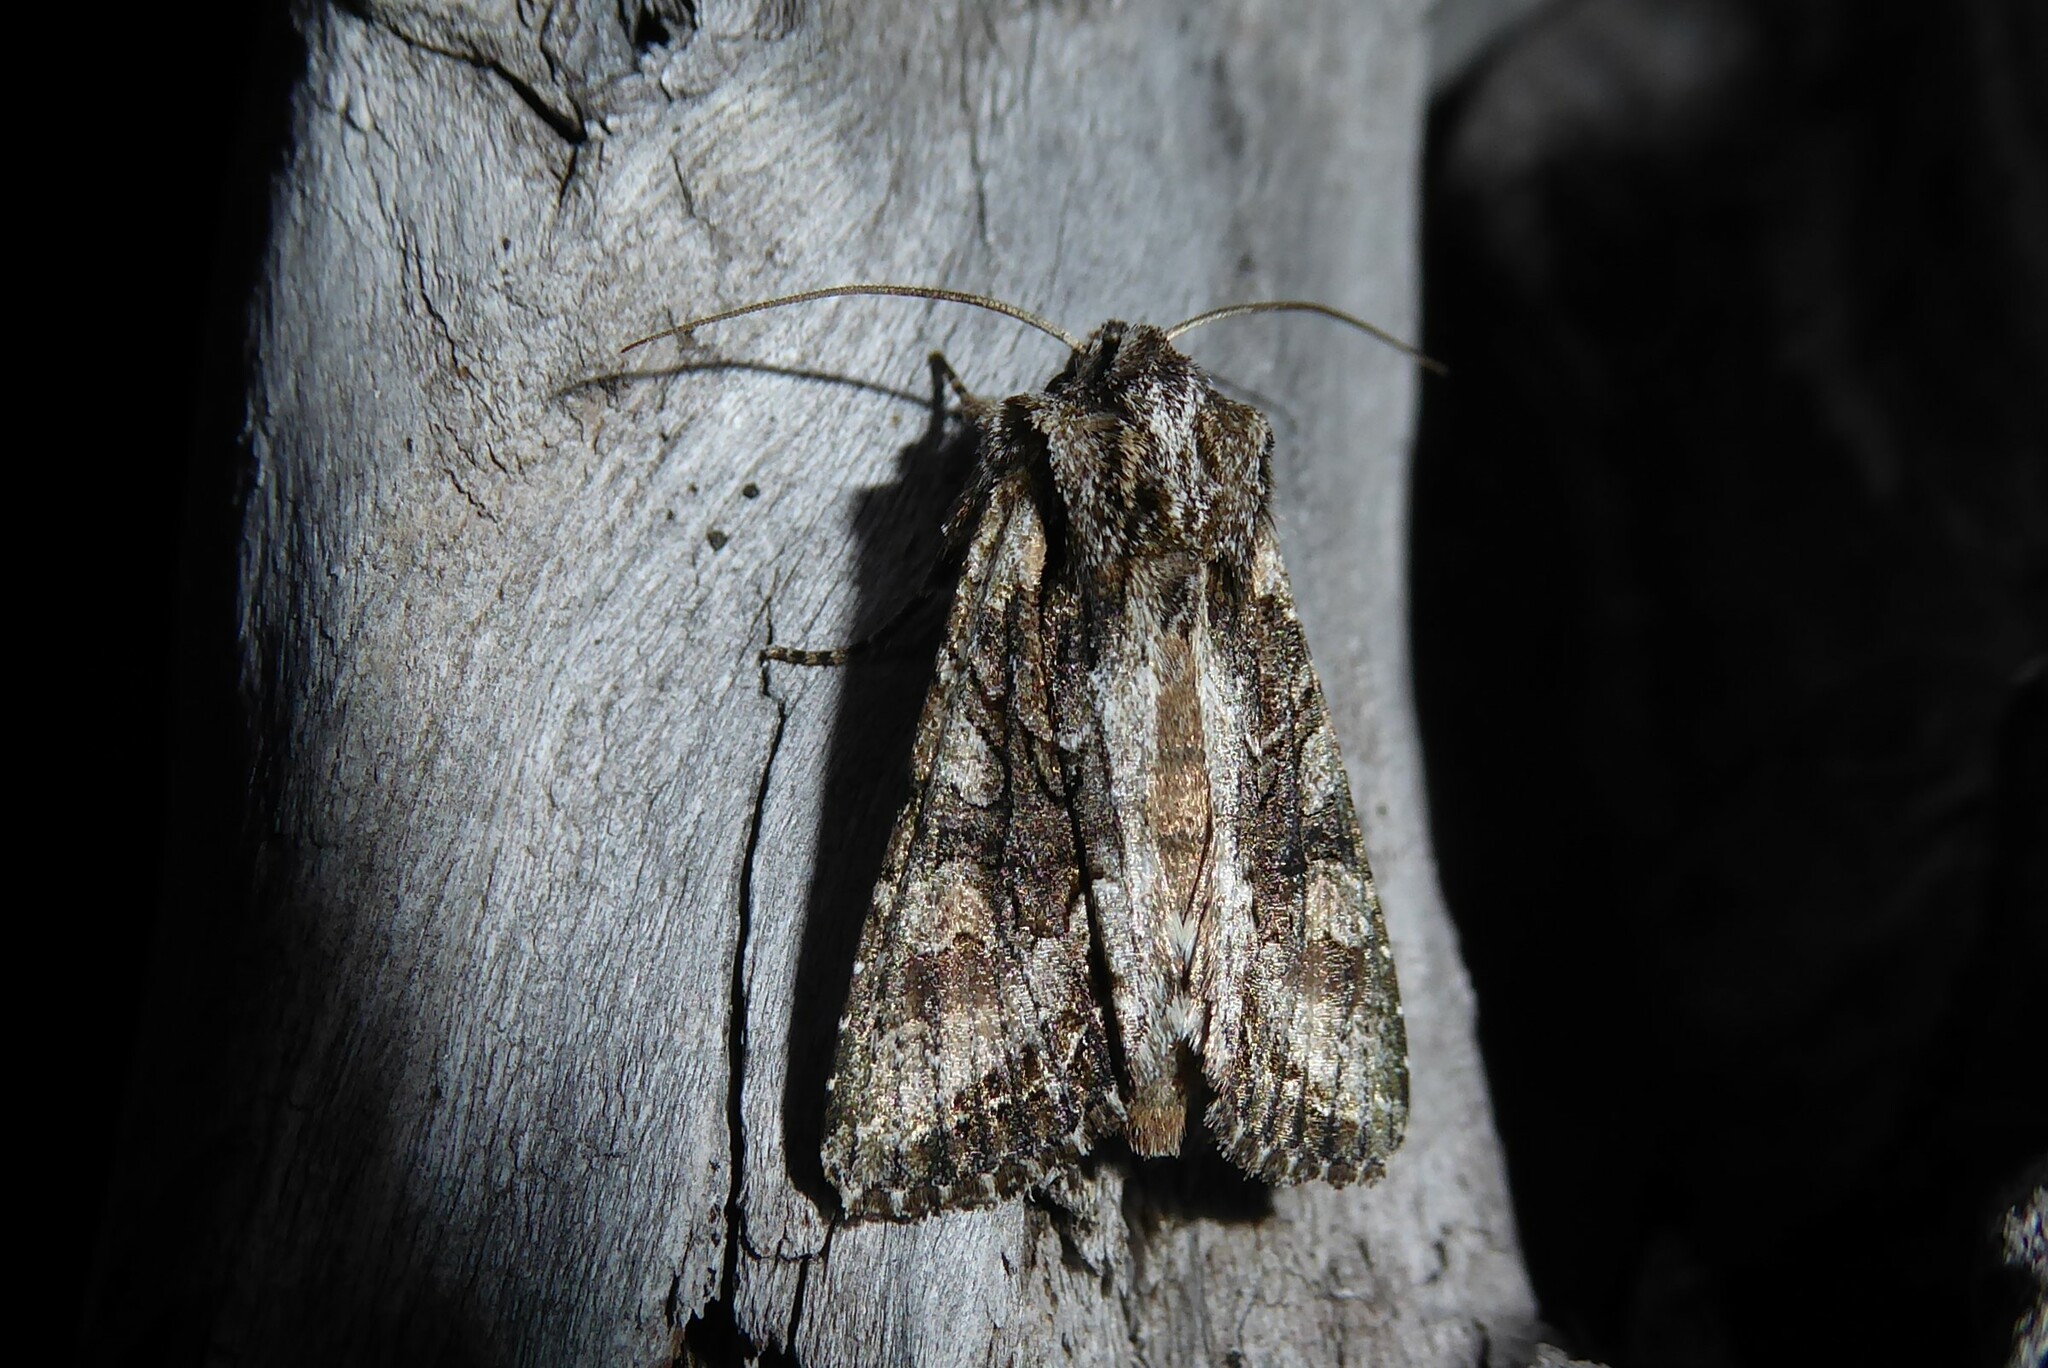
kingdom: Animalia
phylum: Arthropoda
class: Insecta
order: Lepidoptera
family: Noctuidae
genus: Ichneutica
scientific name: Ichneutica mutans
